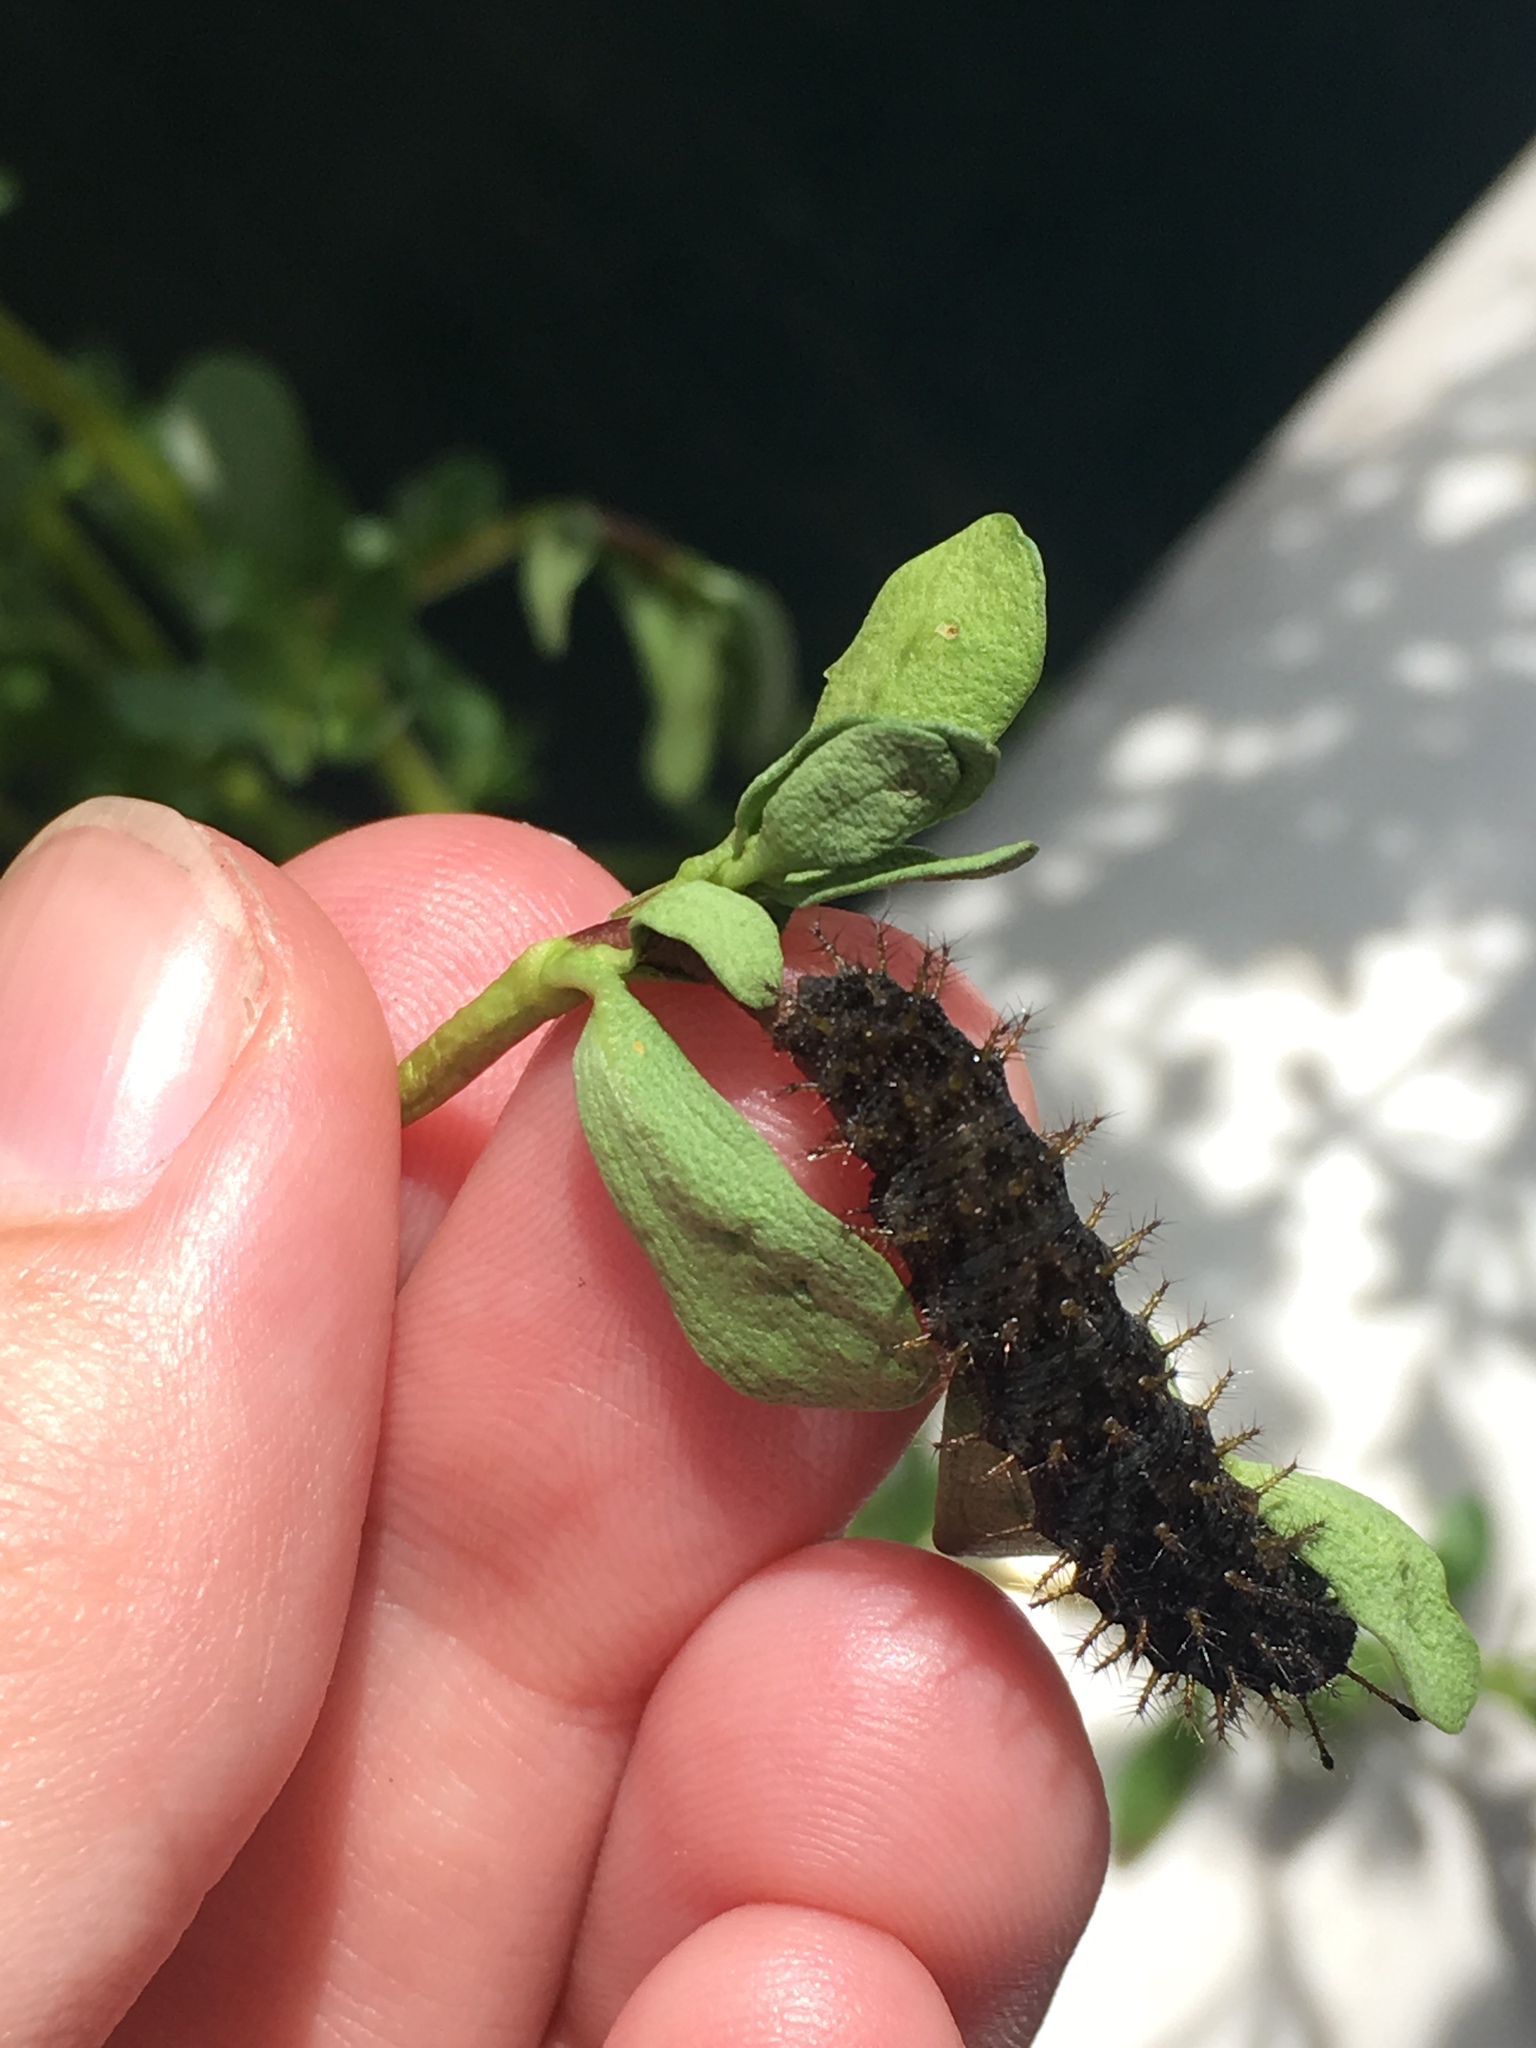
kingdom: Animalia
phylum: Arthropoda
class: Insecta
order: Lepidoptera
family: Nymphalidae
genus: Anartia
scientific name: Anartia jatrophae
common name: White peacock
